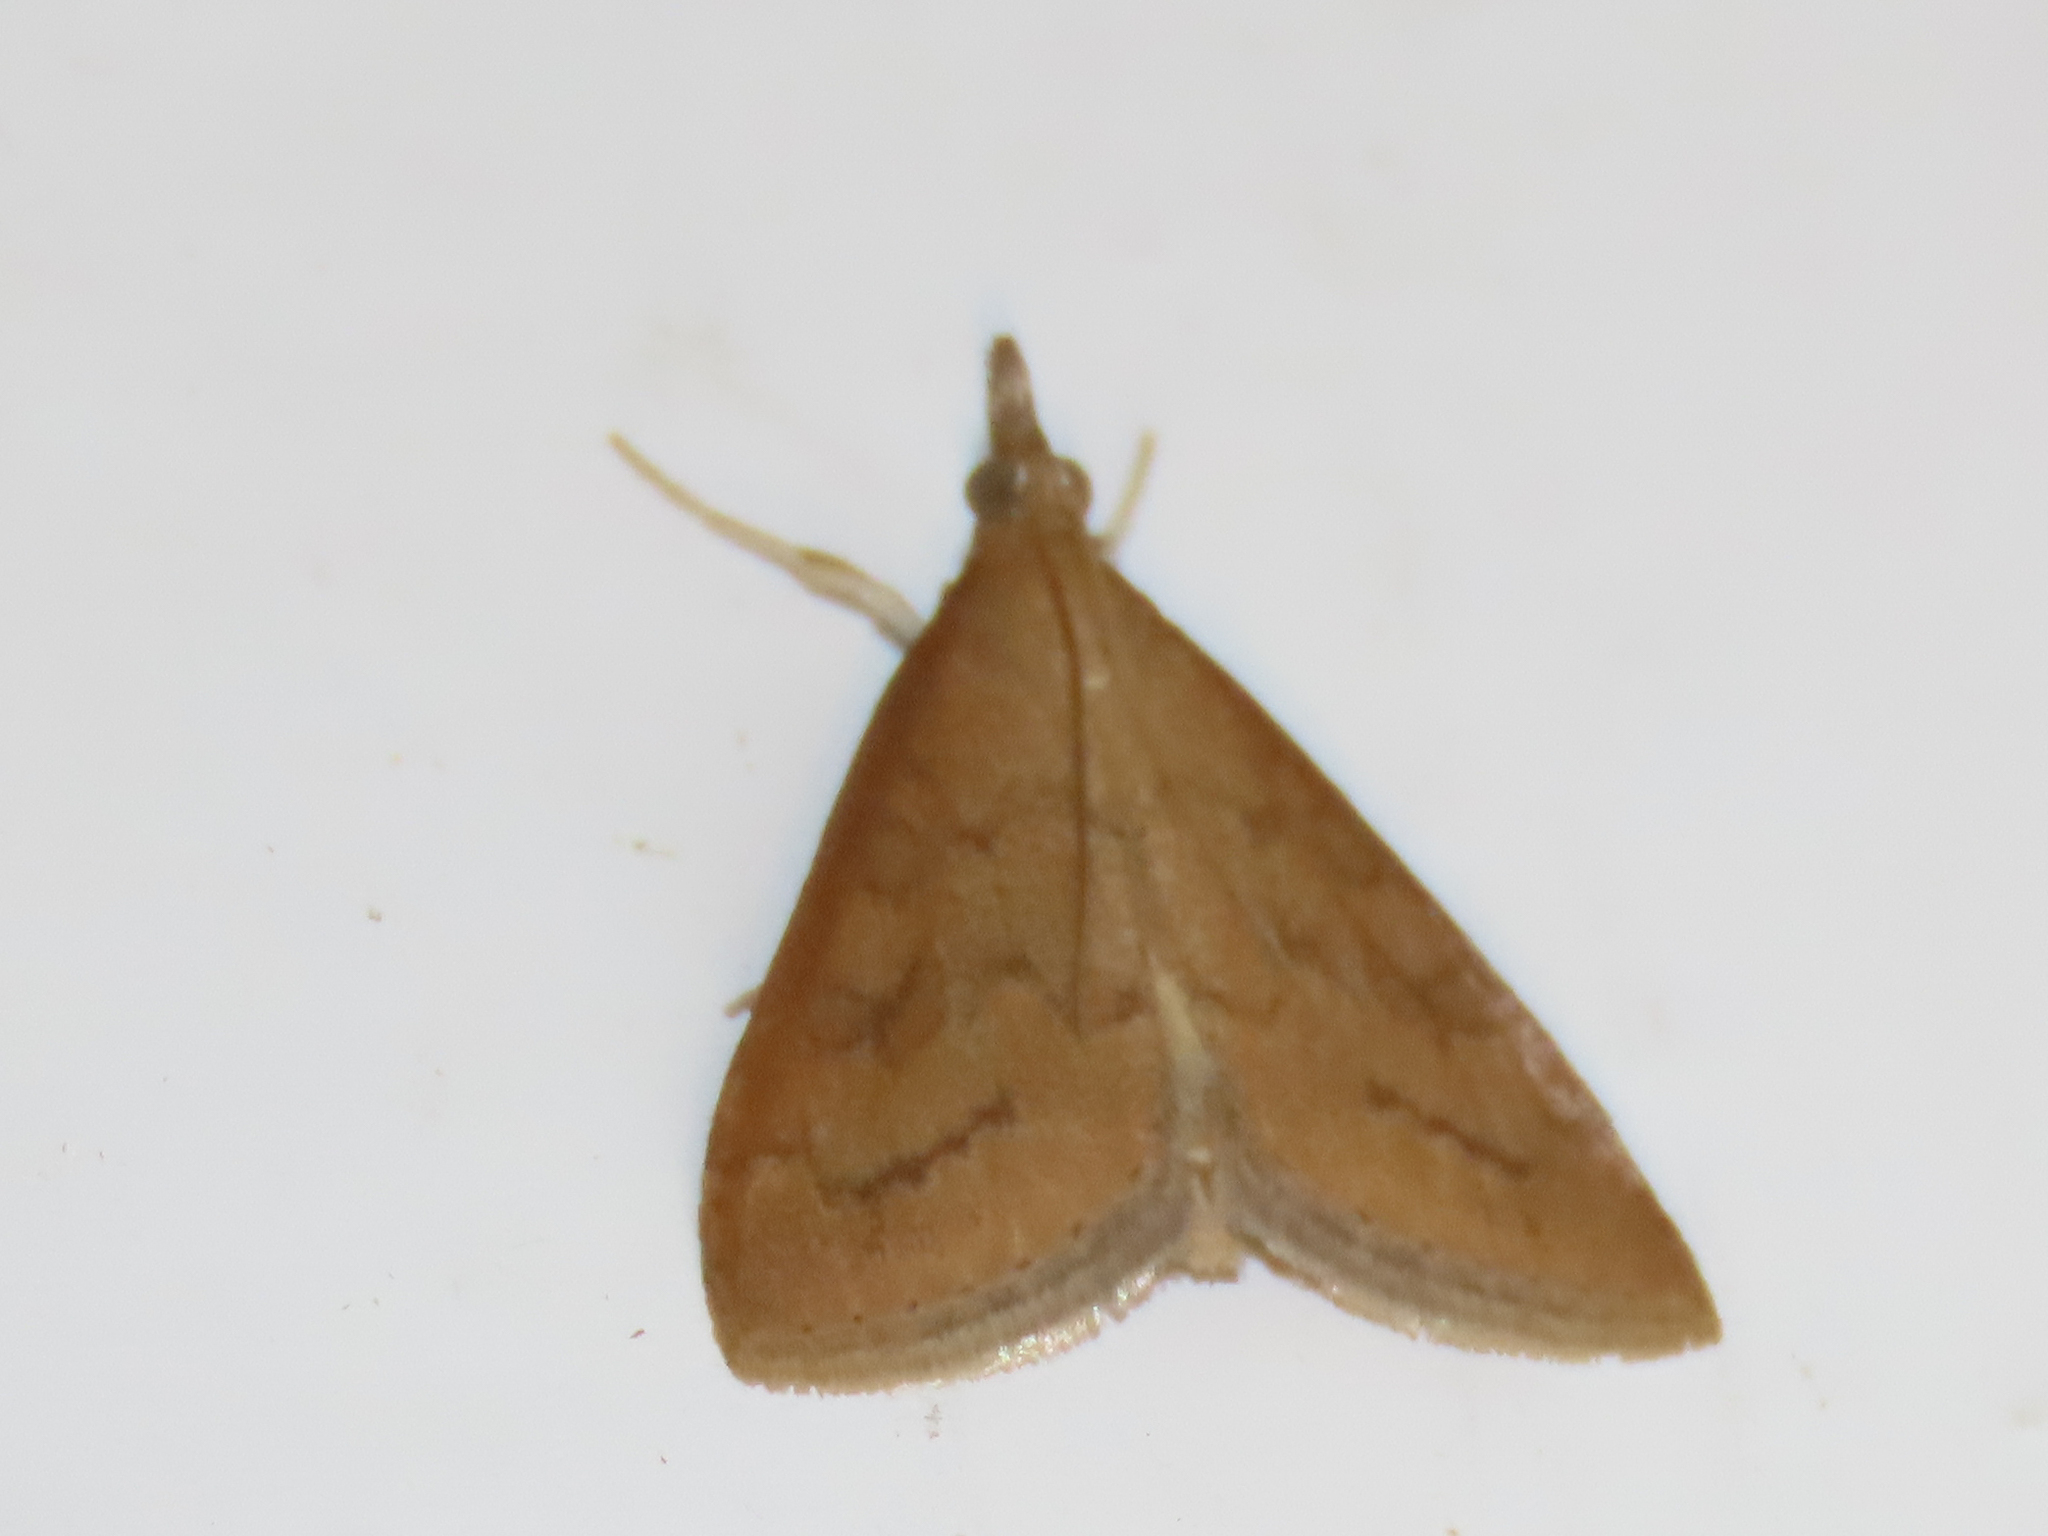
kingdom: Animalia
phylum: Arthropoda
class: Insecta
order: Lepidoptera
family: Crambidae
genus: Udea
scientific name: Udea rubigalis
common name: Celery leaftier moth
